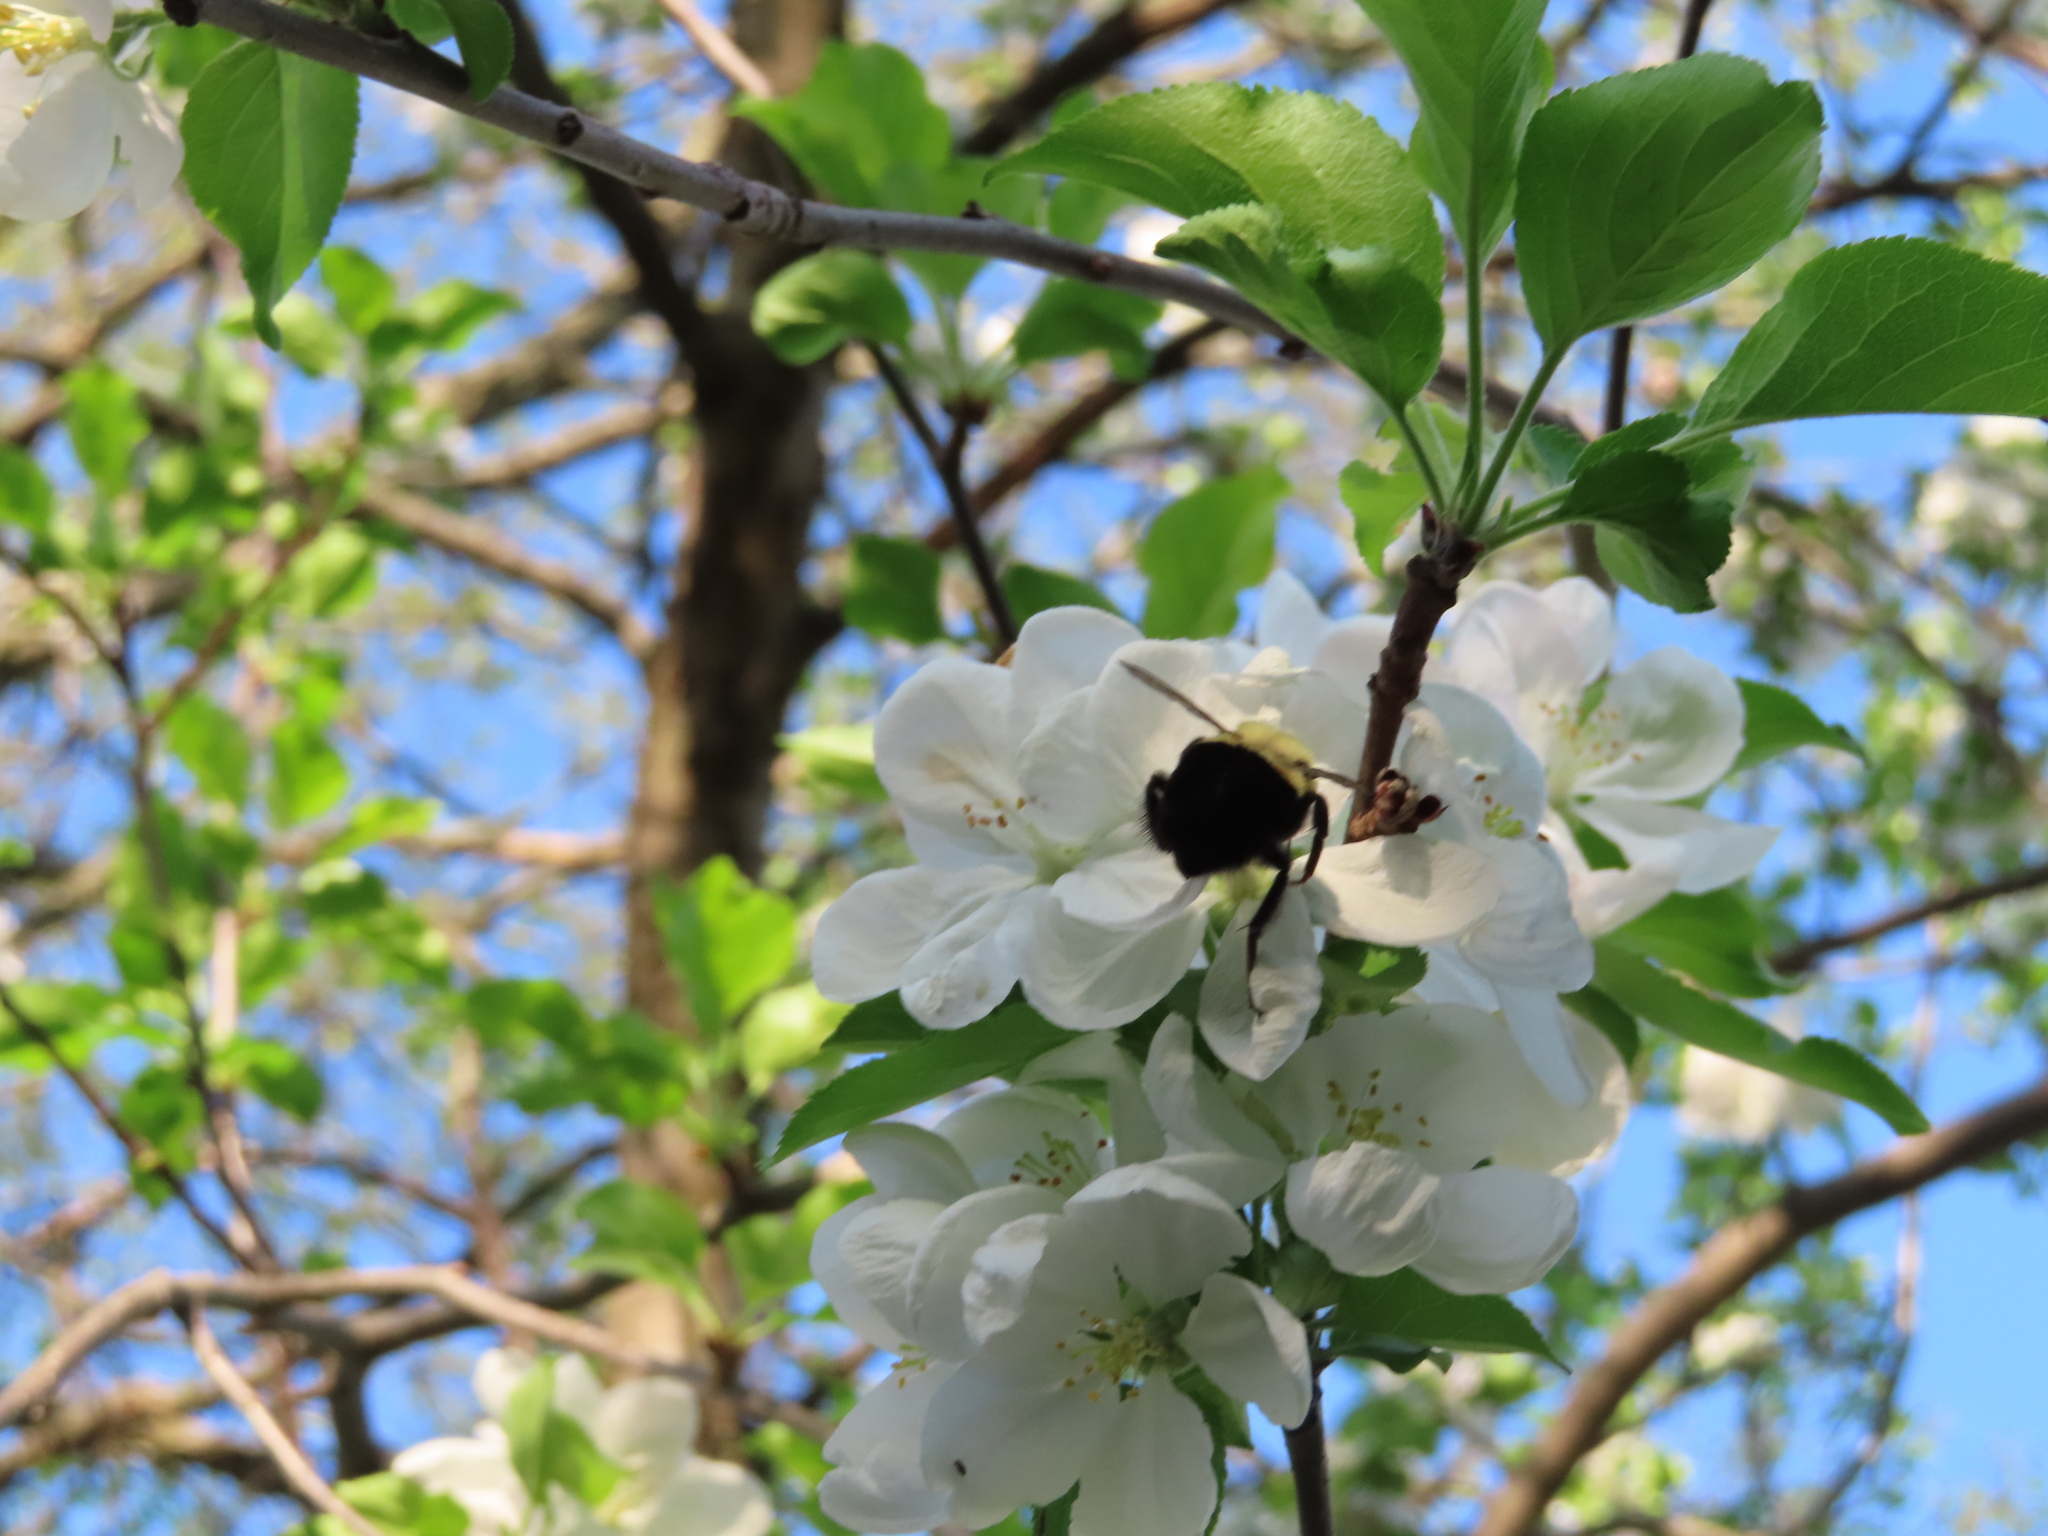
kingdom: Animalia
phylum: Arthropoda
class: Insecta
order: Hymenoptera
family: Apidae
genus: Bombus
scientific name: Bombus impatiens
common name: Common eastern bumble bee
